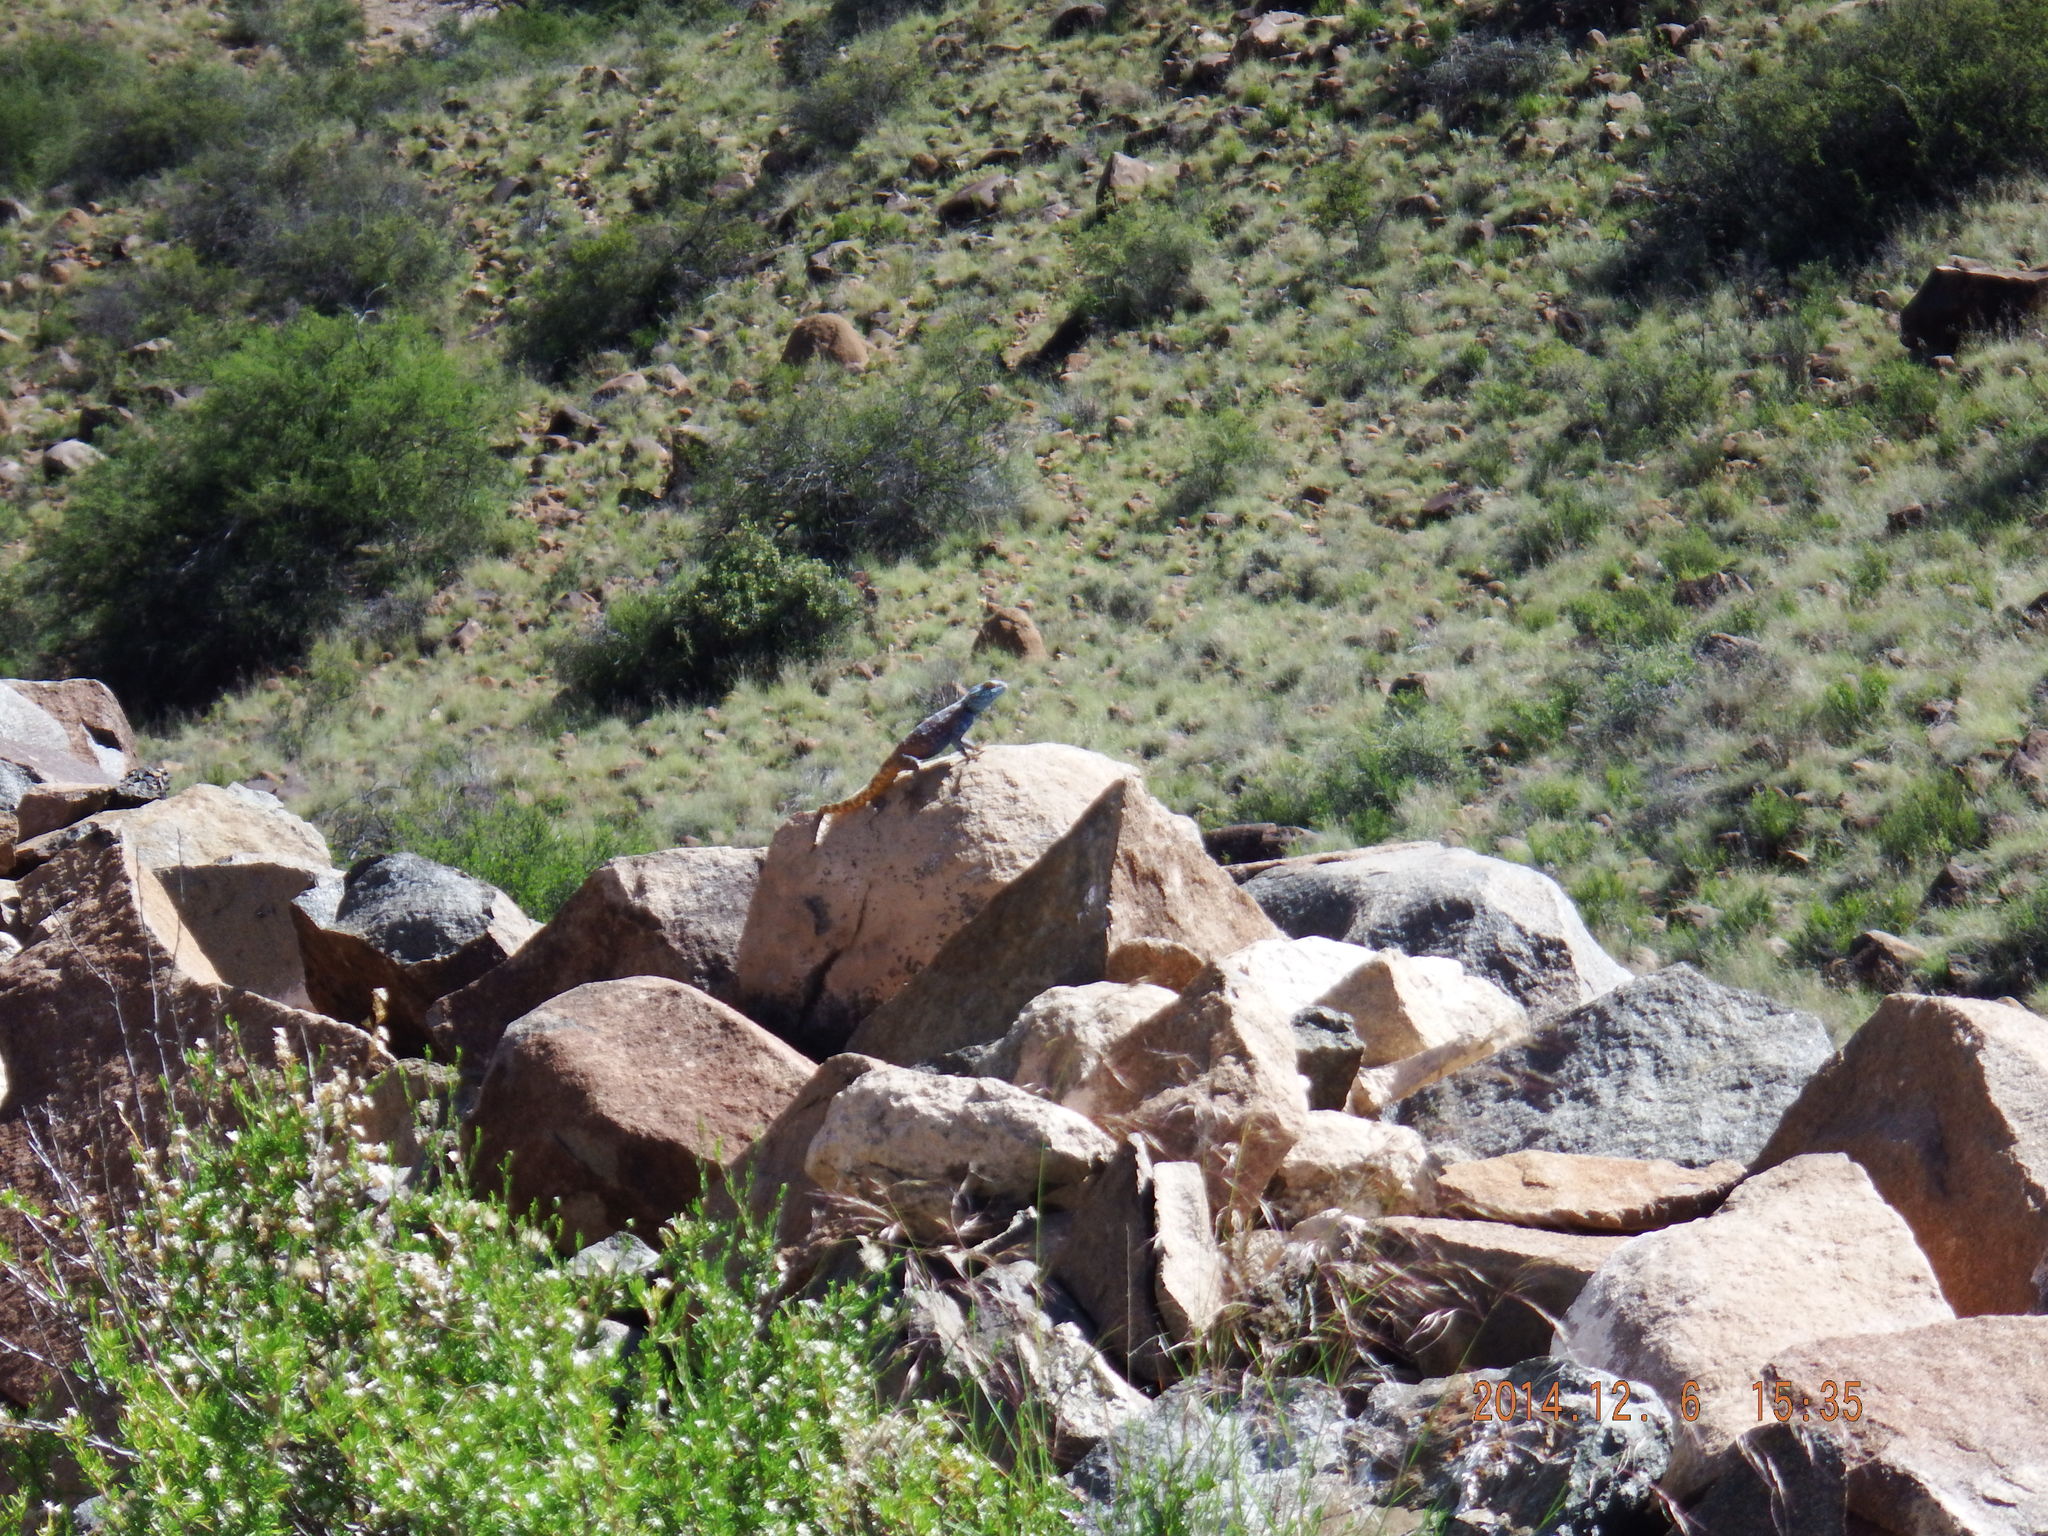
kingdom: Animalia
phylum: Chordata
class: Squamata
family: Agamidae
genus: Agama
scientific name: Agama atra
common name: Southern african rock agama
